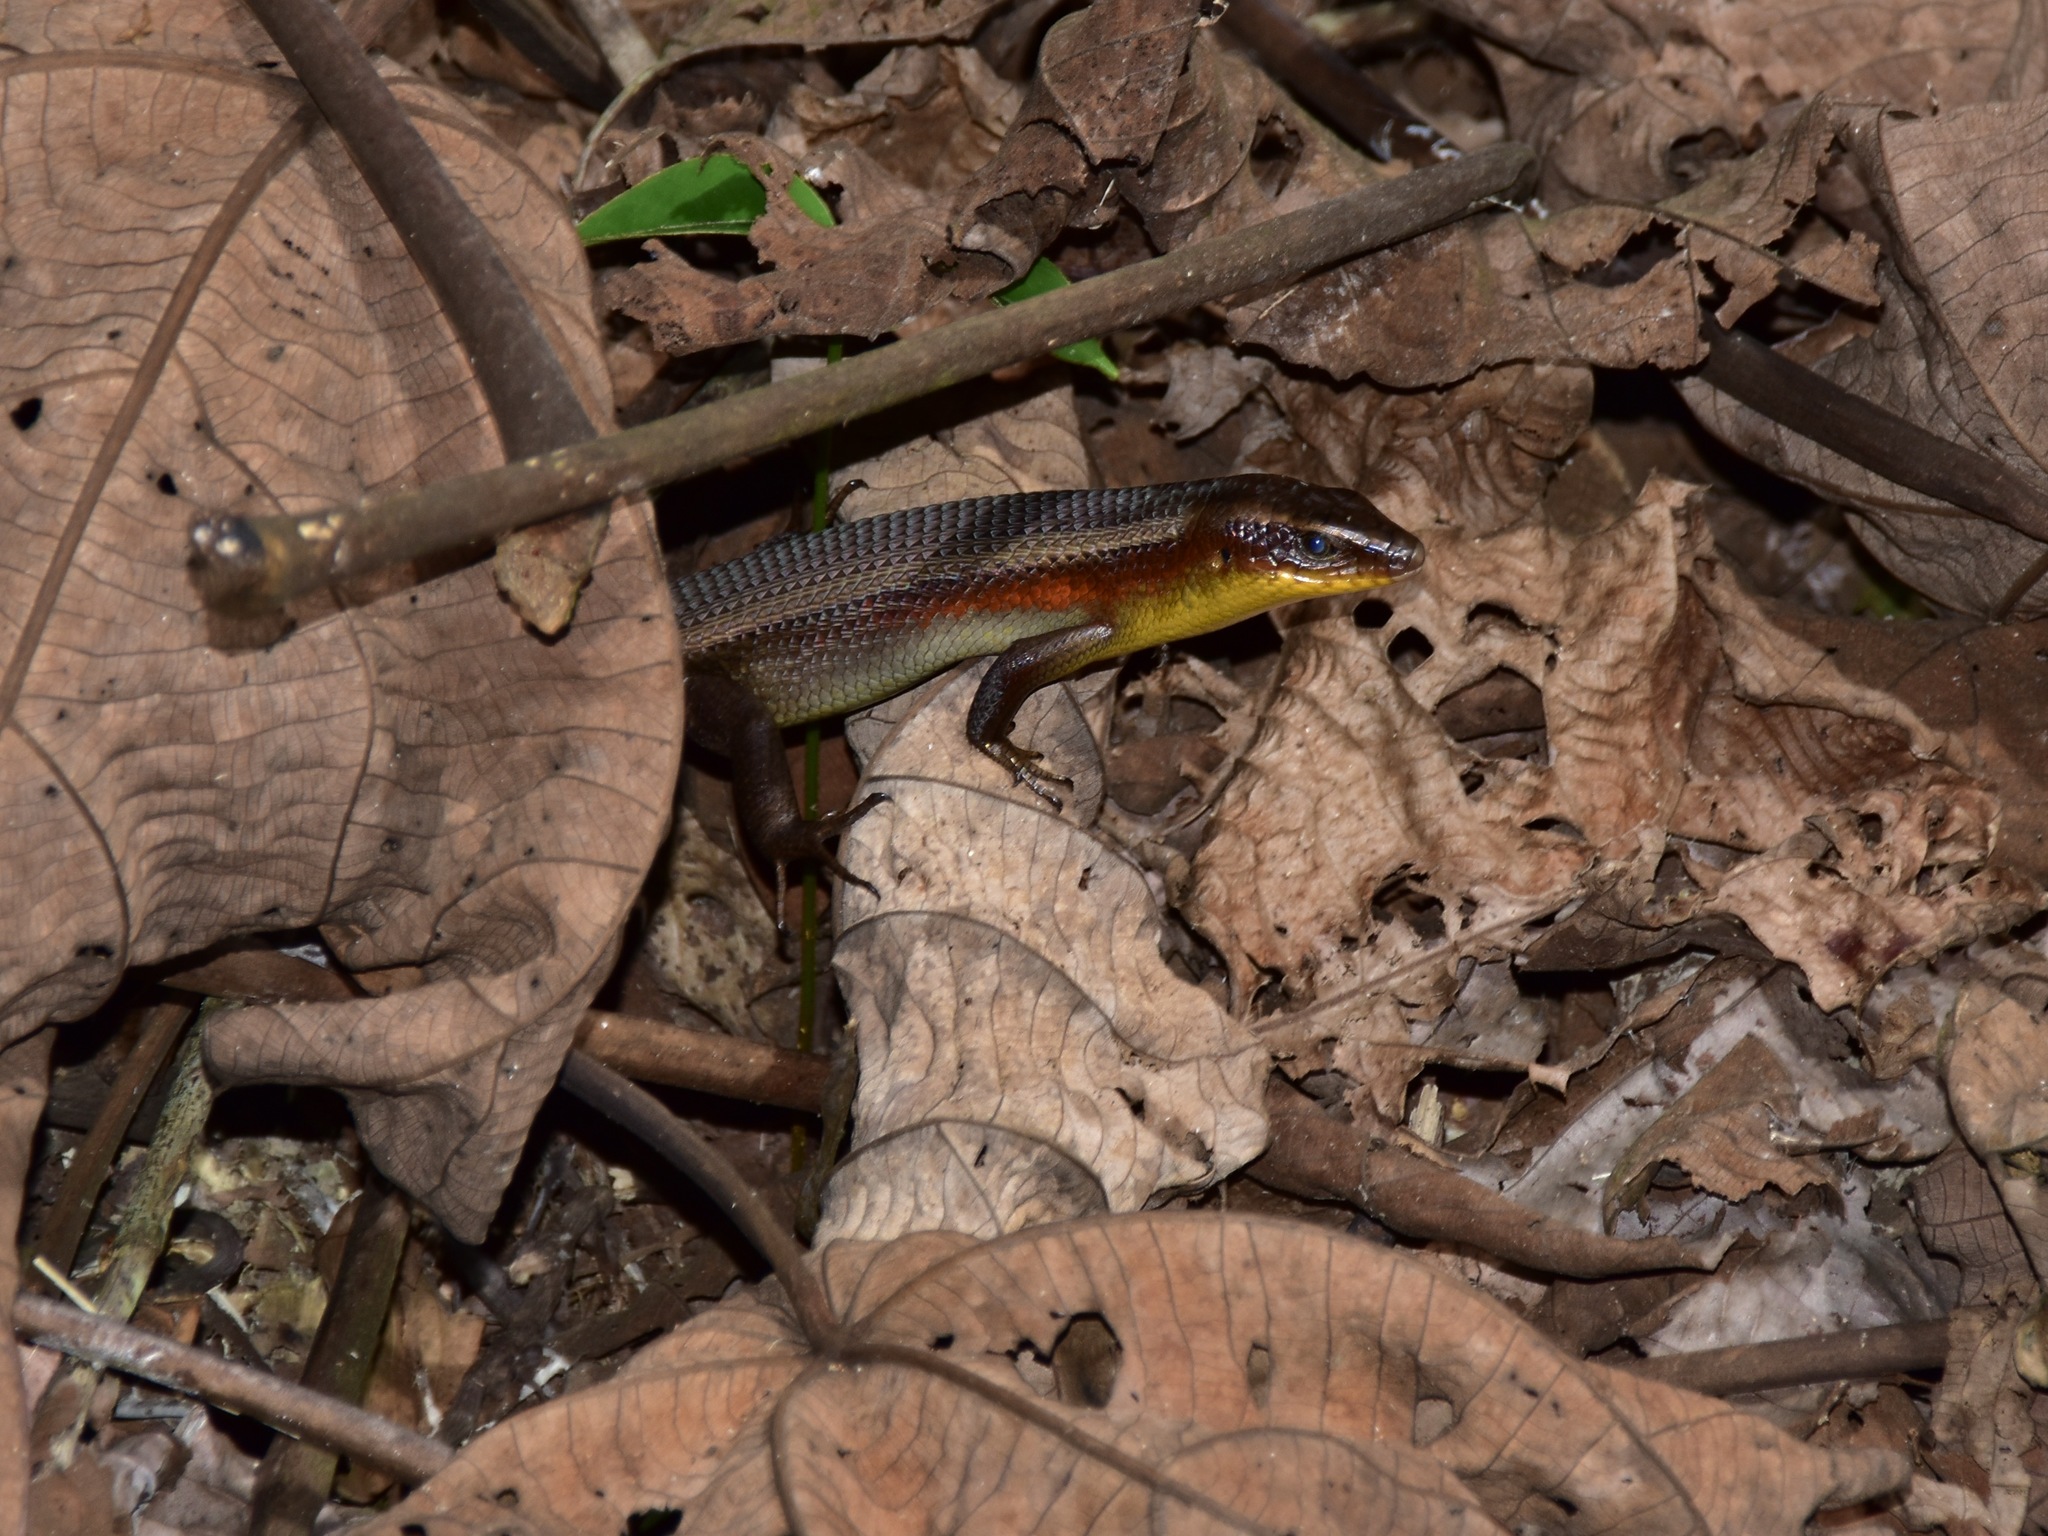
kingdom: Animalia
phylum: Chordata
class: Squamata
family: Scincidae
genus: Eutropis
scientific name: Eutropis multifasciata
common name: Common mabuya
